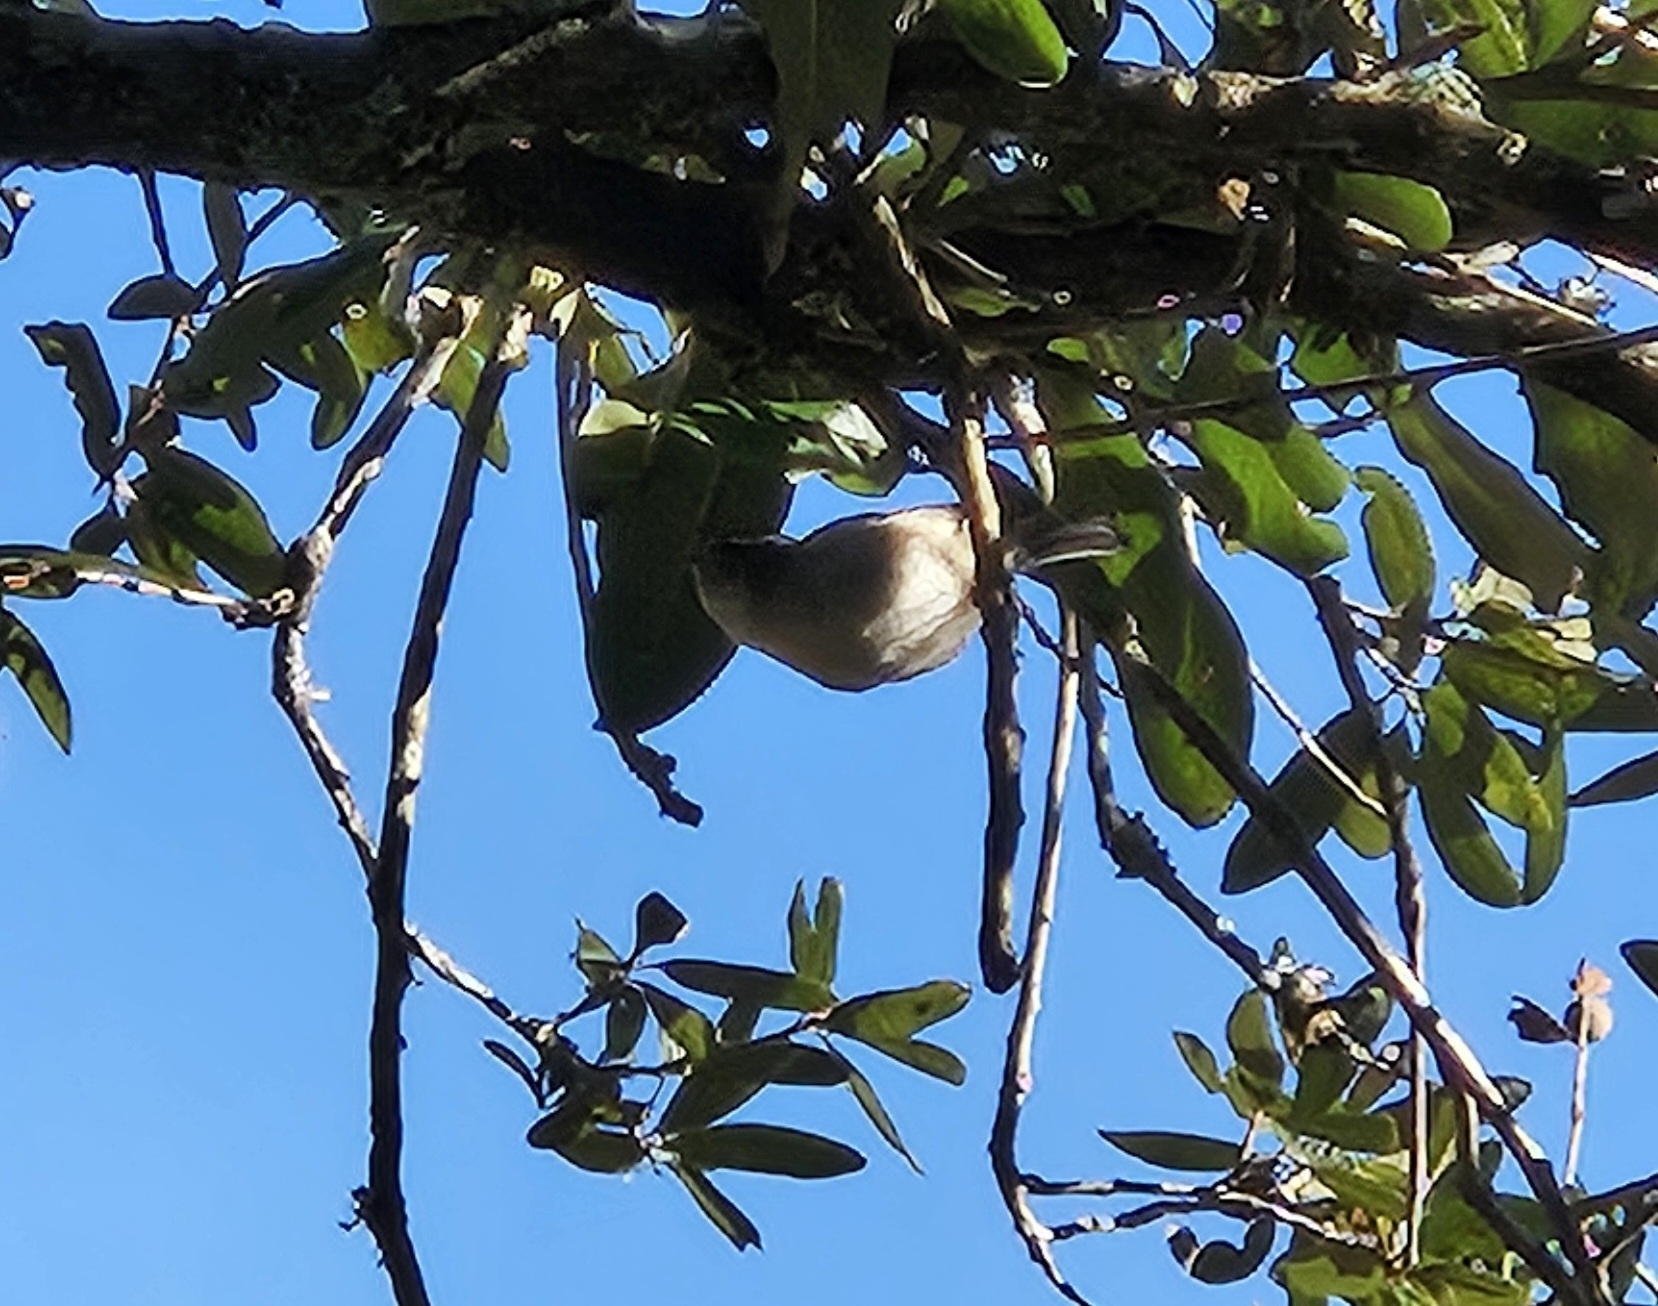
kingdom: Animalia
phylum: Chordata
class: Aves
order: Passeriformes
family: Regulidae
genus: Regulus
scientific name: Regulus satrapa
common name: Golden-crowned kinglet
